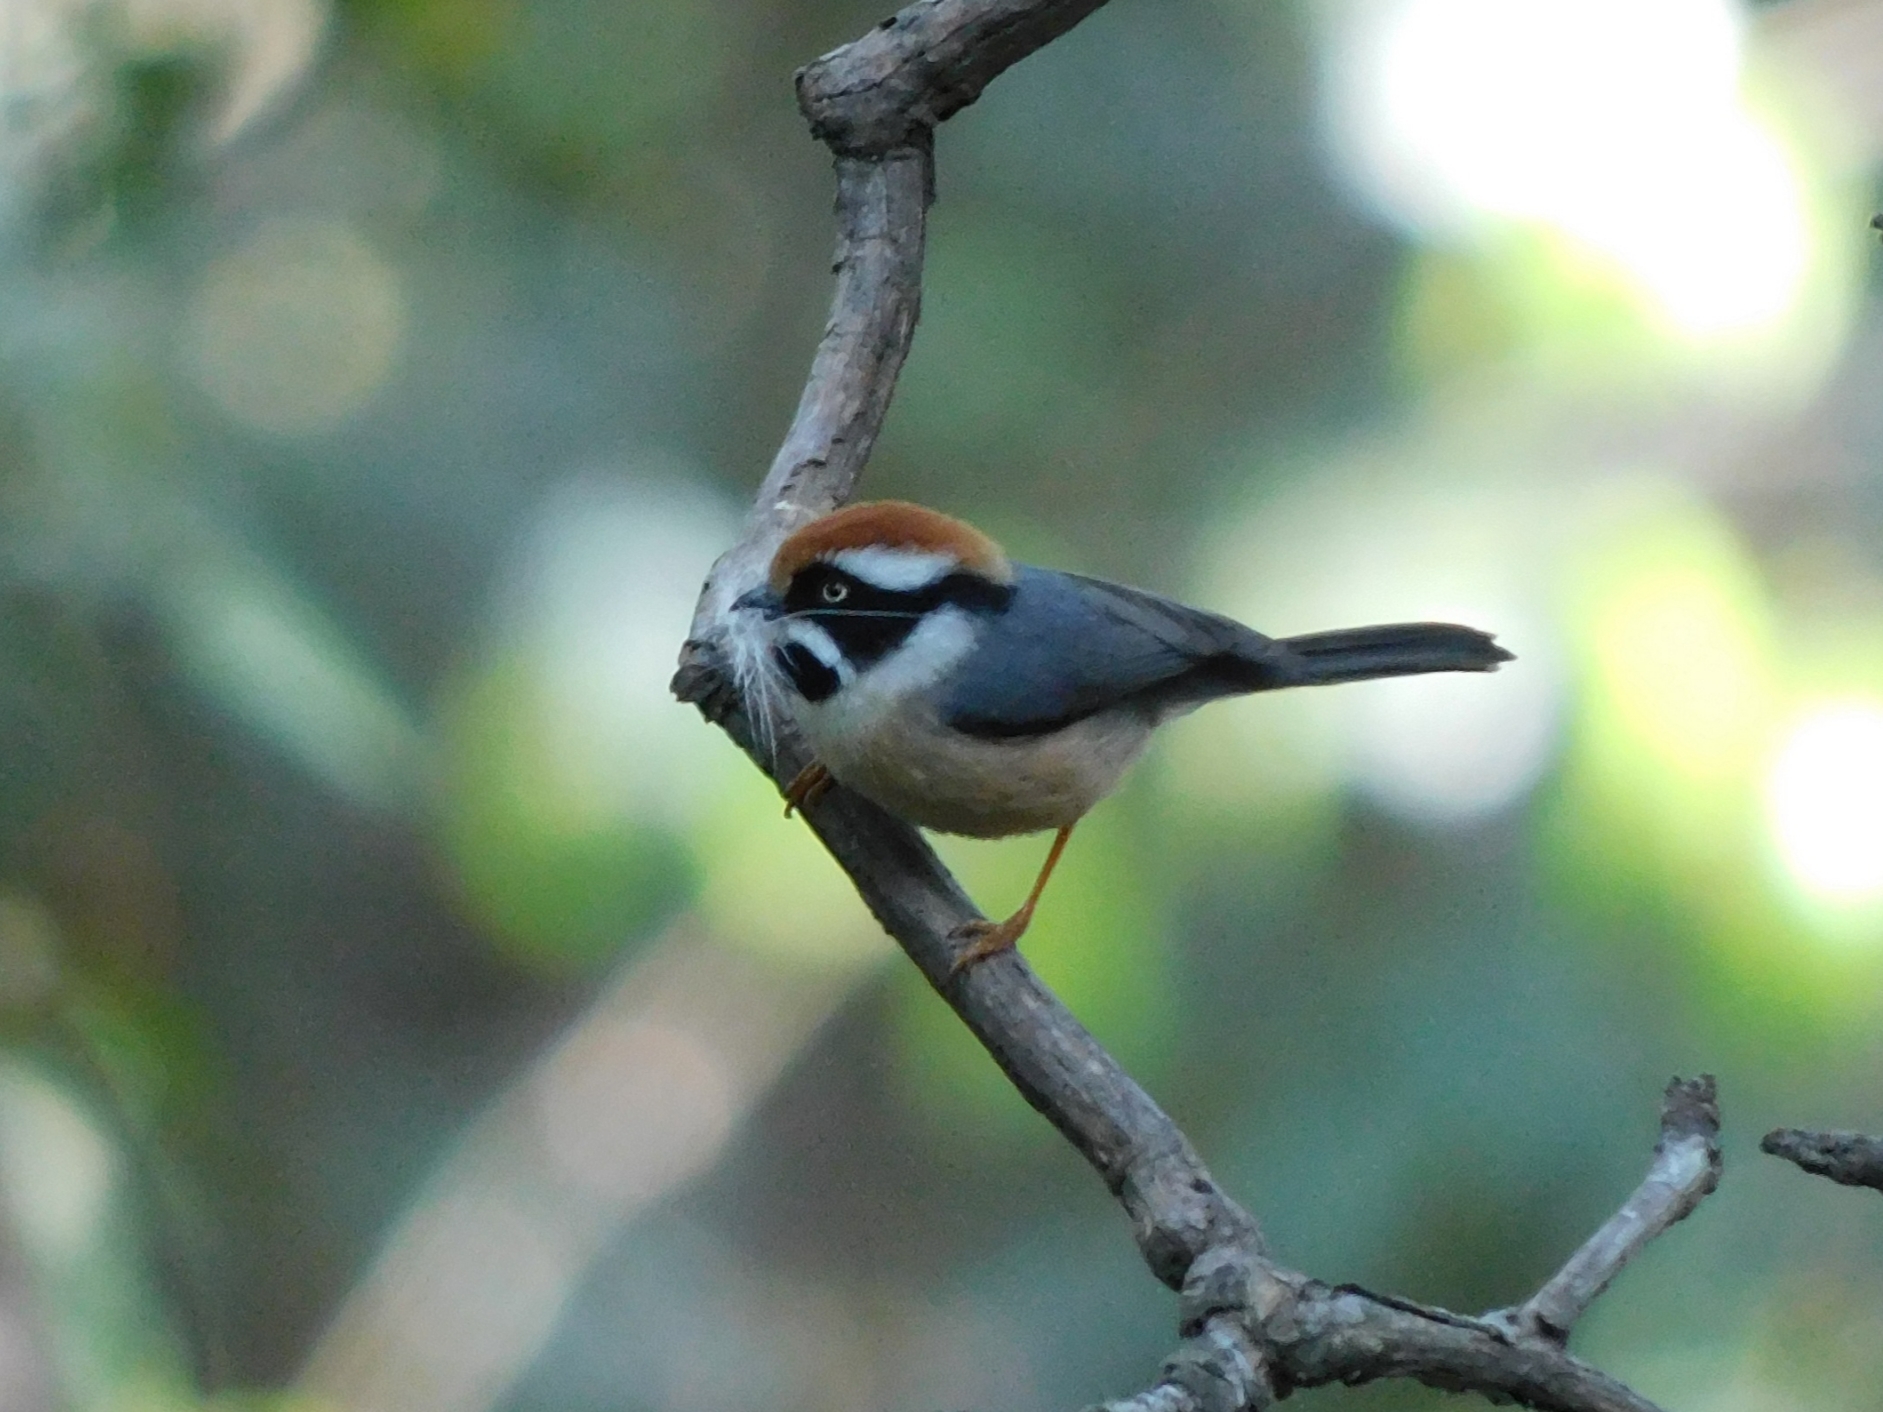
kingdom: Animalia
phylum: Chordata
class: Aves
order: Passeriformes
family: Aegithalidae
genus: Aegithalos
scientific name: Aegithalos concinnus
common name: Black-throated bushtit
